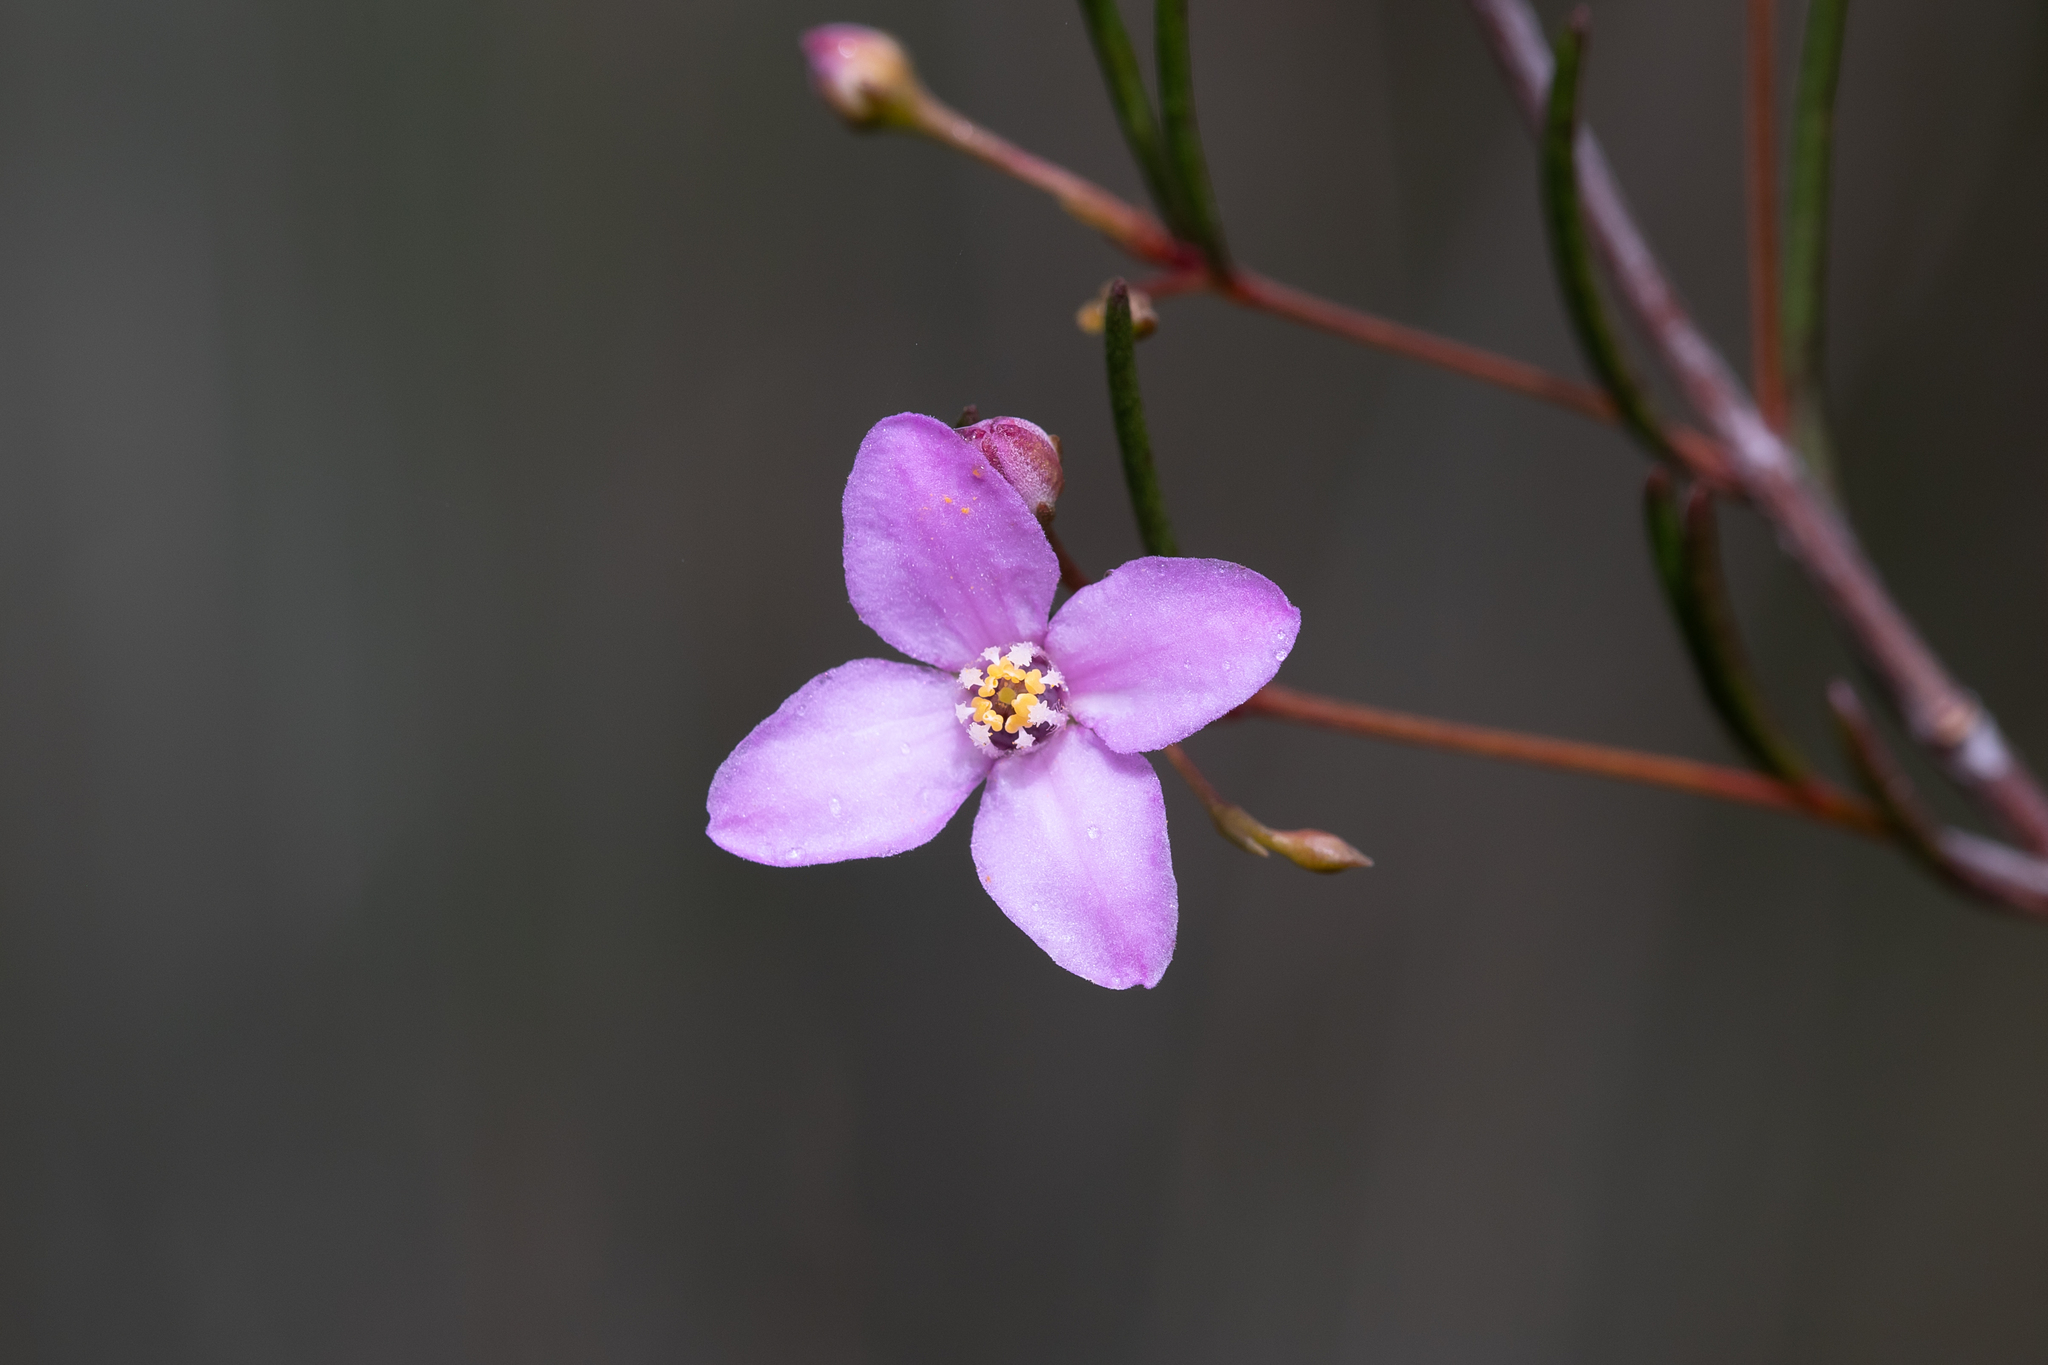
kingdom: Plantae
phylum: Tracheophyta
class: Magnoliopsida
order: Sapindales
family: Rutaceae
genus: Boronia
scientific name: Boronia filifolia
